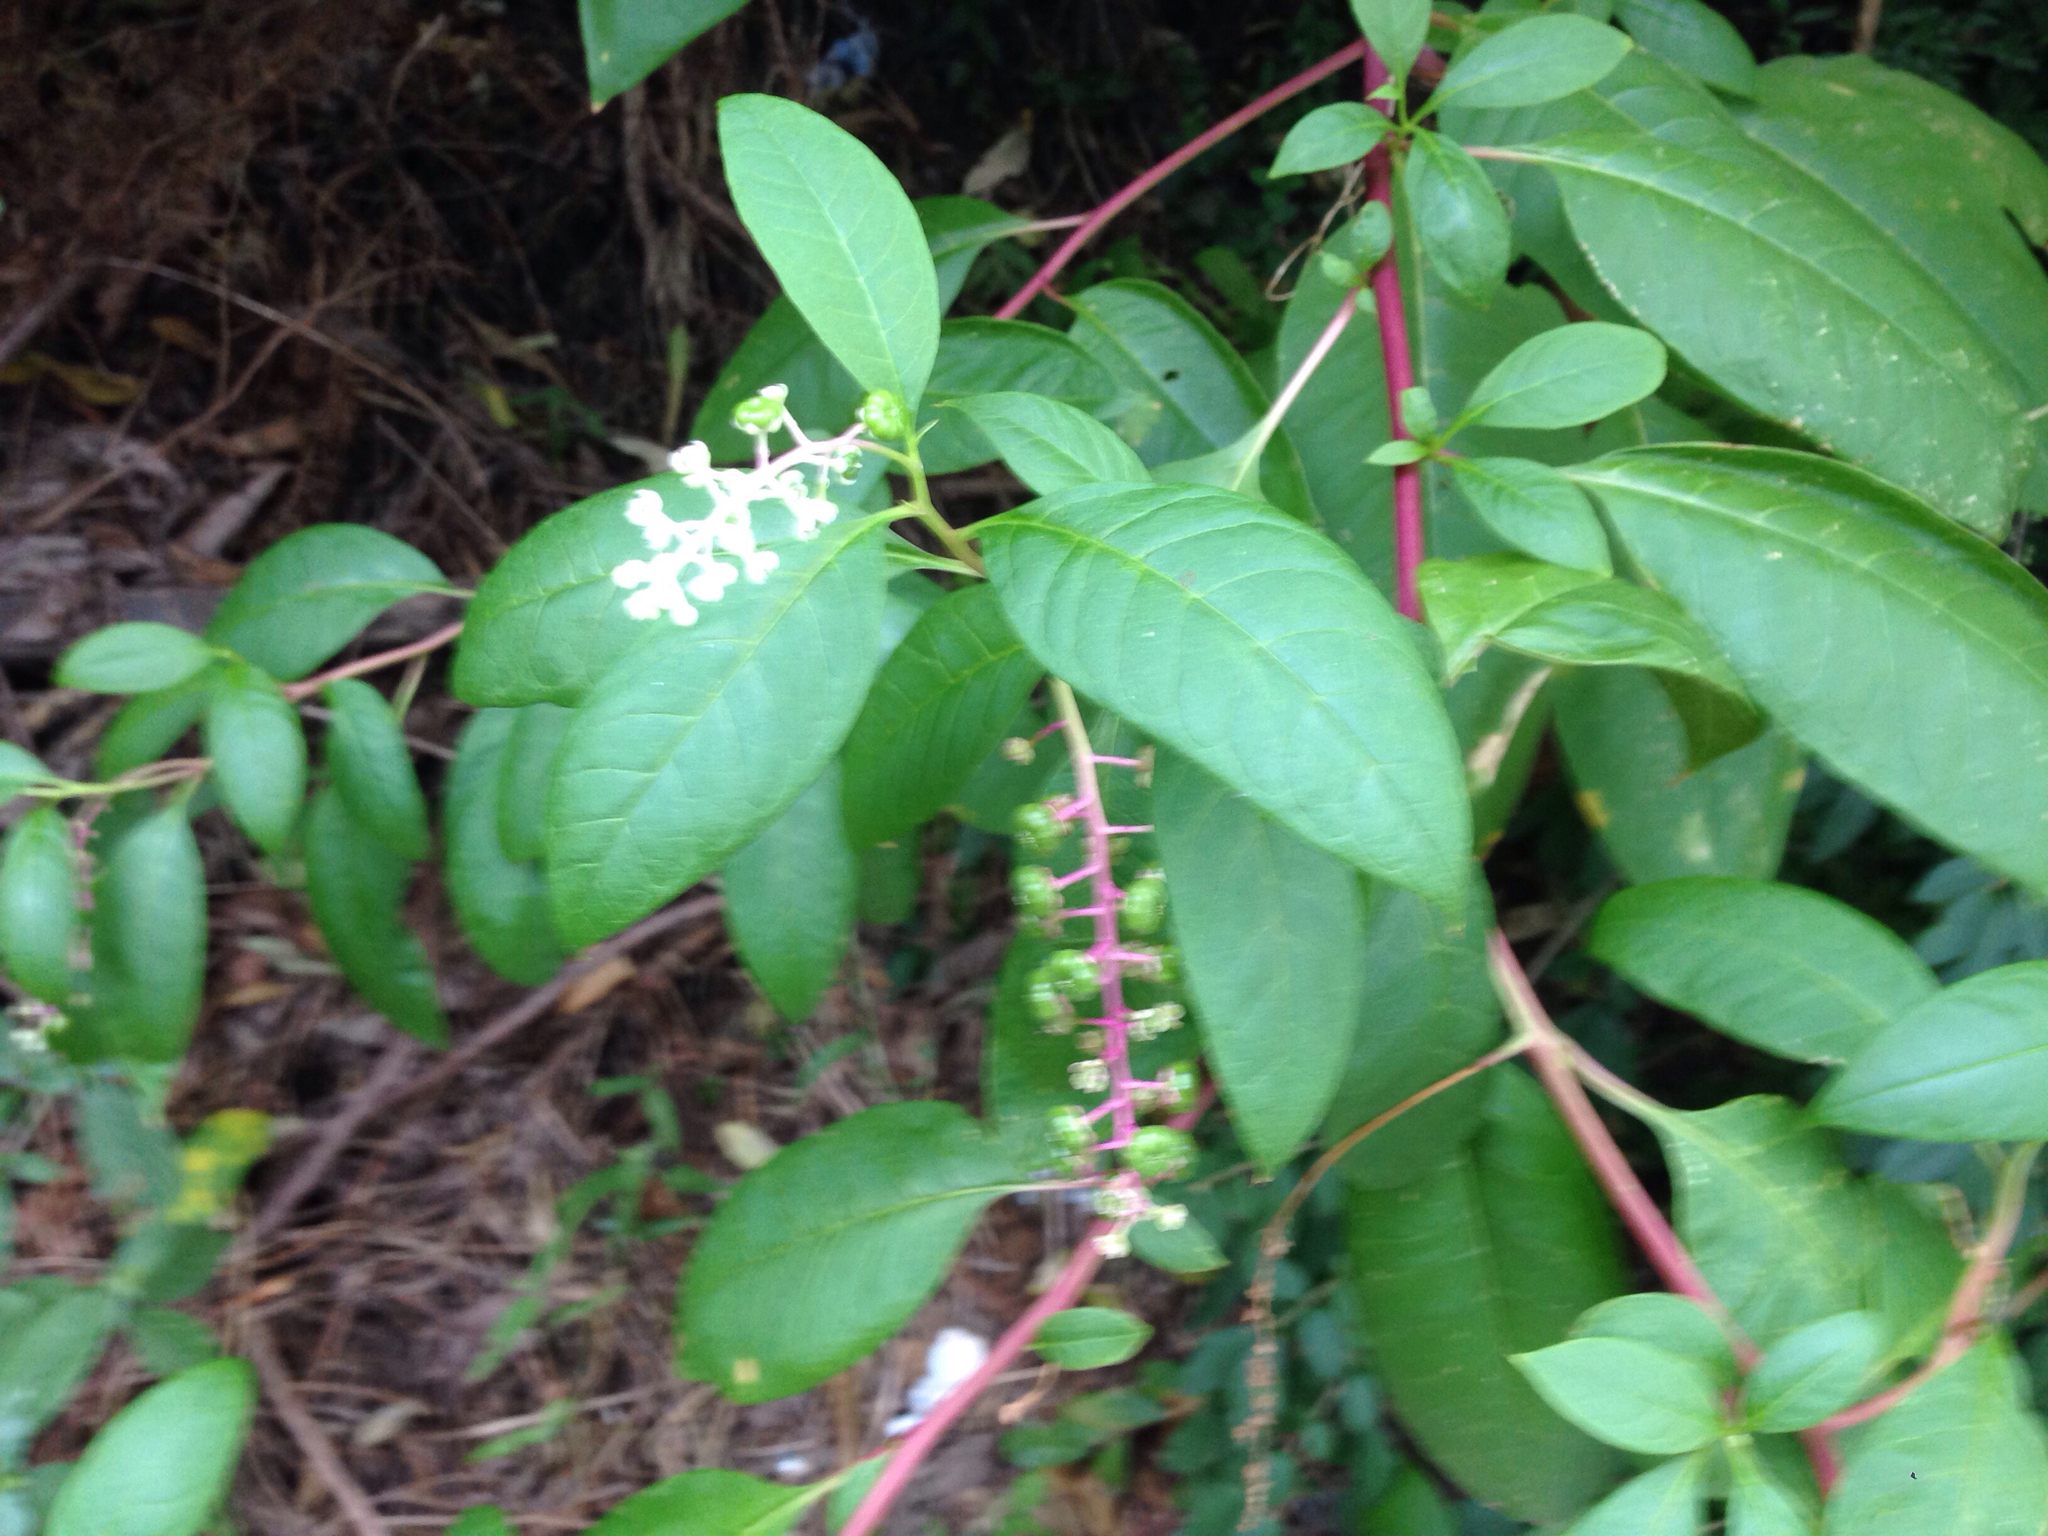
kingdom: Plantae
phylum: Tracheophyta
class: Magnoliopsida
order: Caryophyllales
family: Phytolaccaceae
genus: Phytolacca
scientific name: Phytolacca americana
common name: American pokeweed
